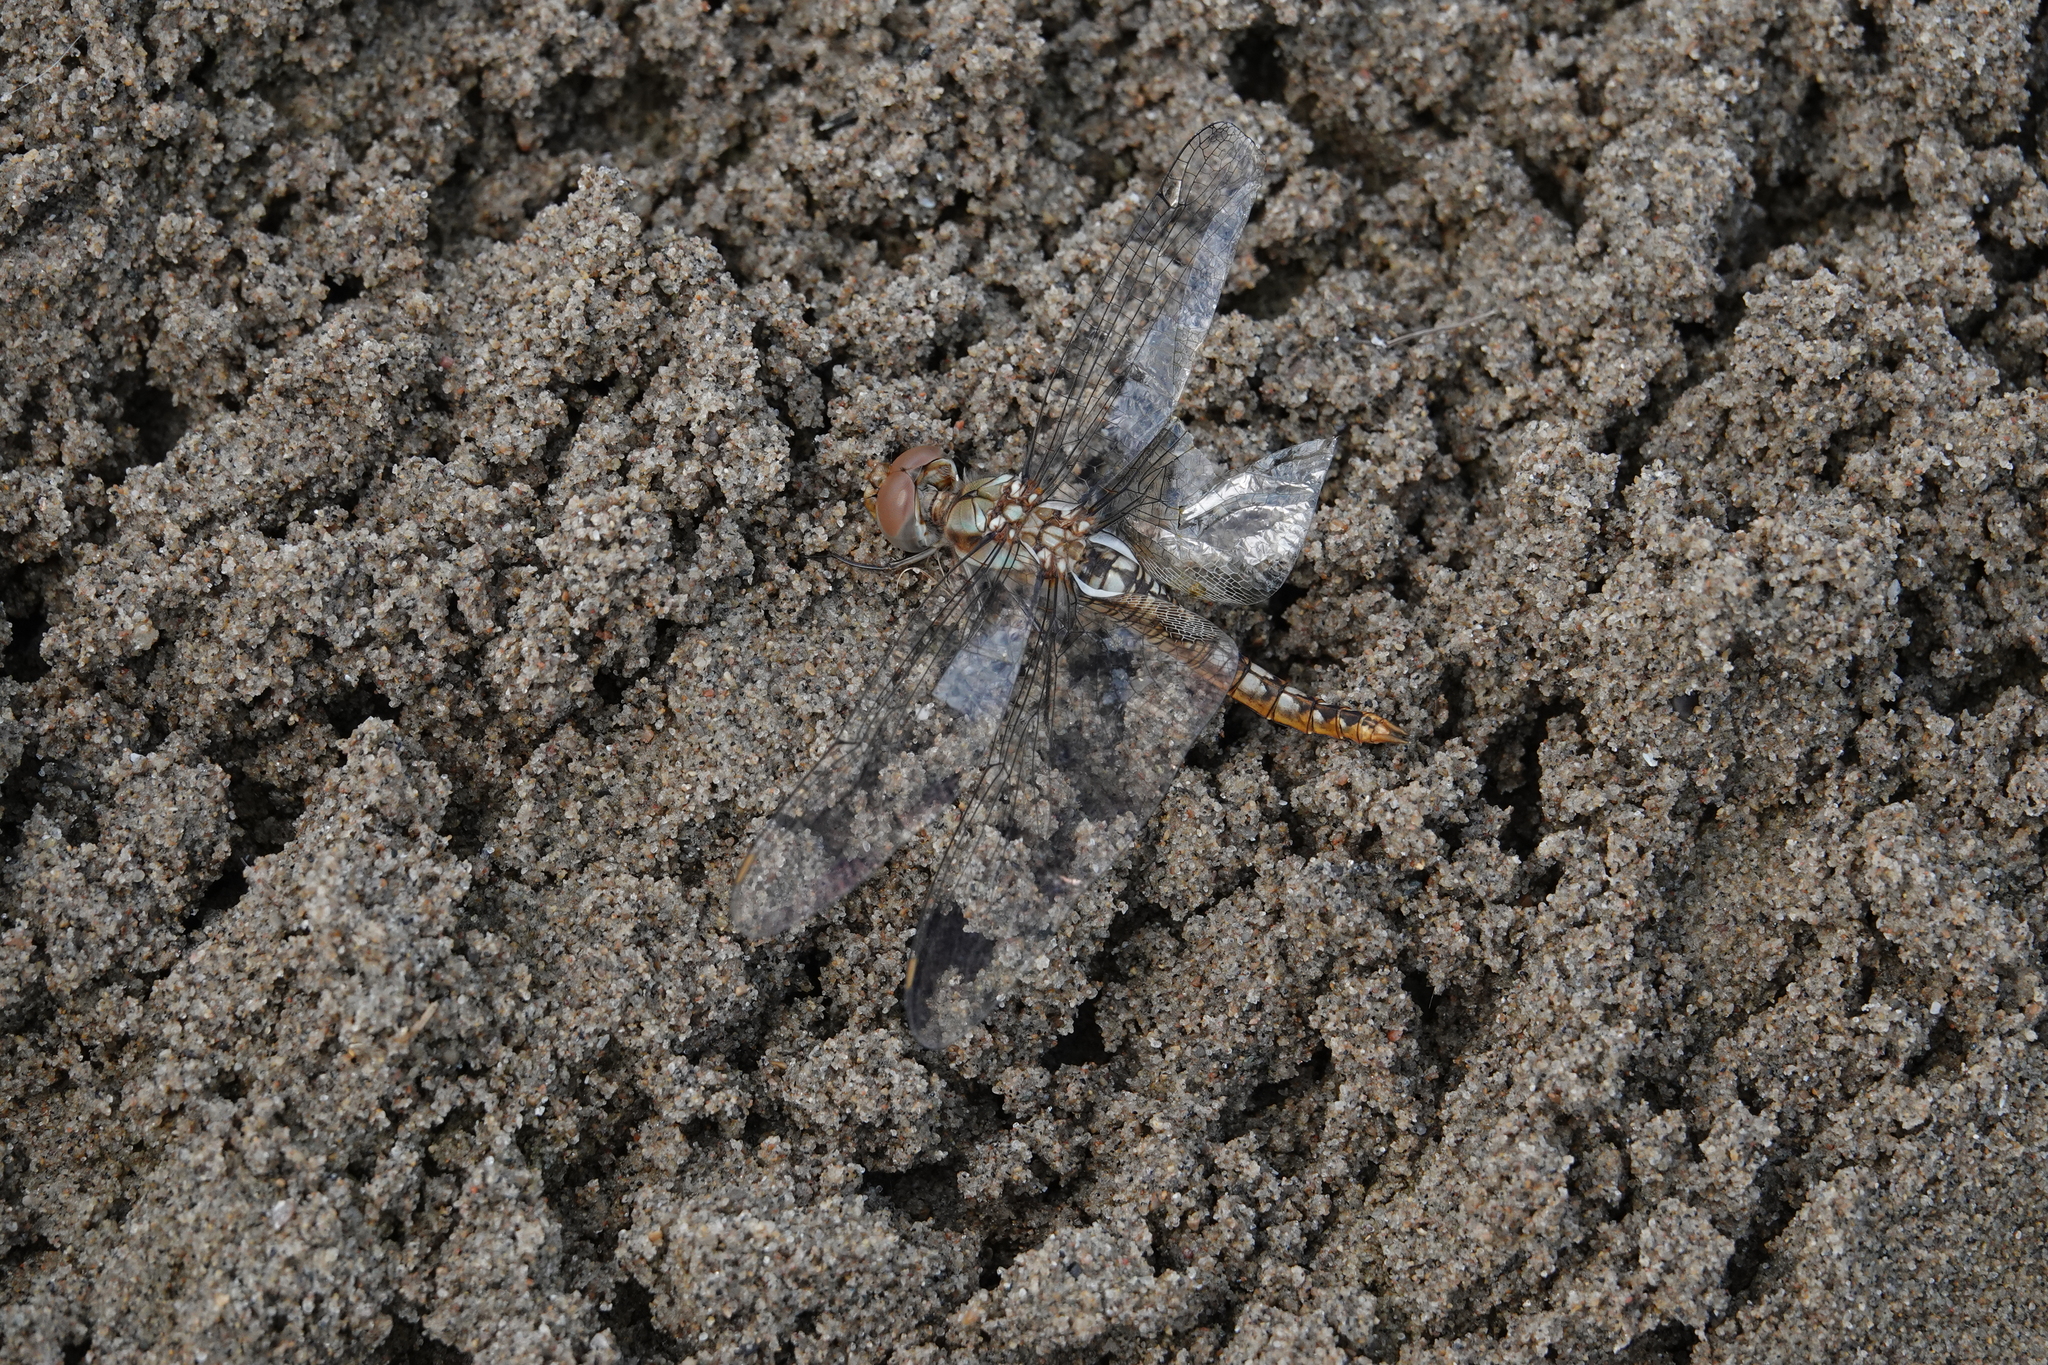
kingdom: Animalia
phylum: Arthropoda
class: Insecta
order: Odonata
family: Libellulidae
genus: Pantala
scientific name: Pantala hymenaea
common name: Spot-winged glider
